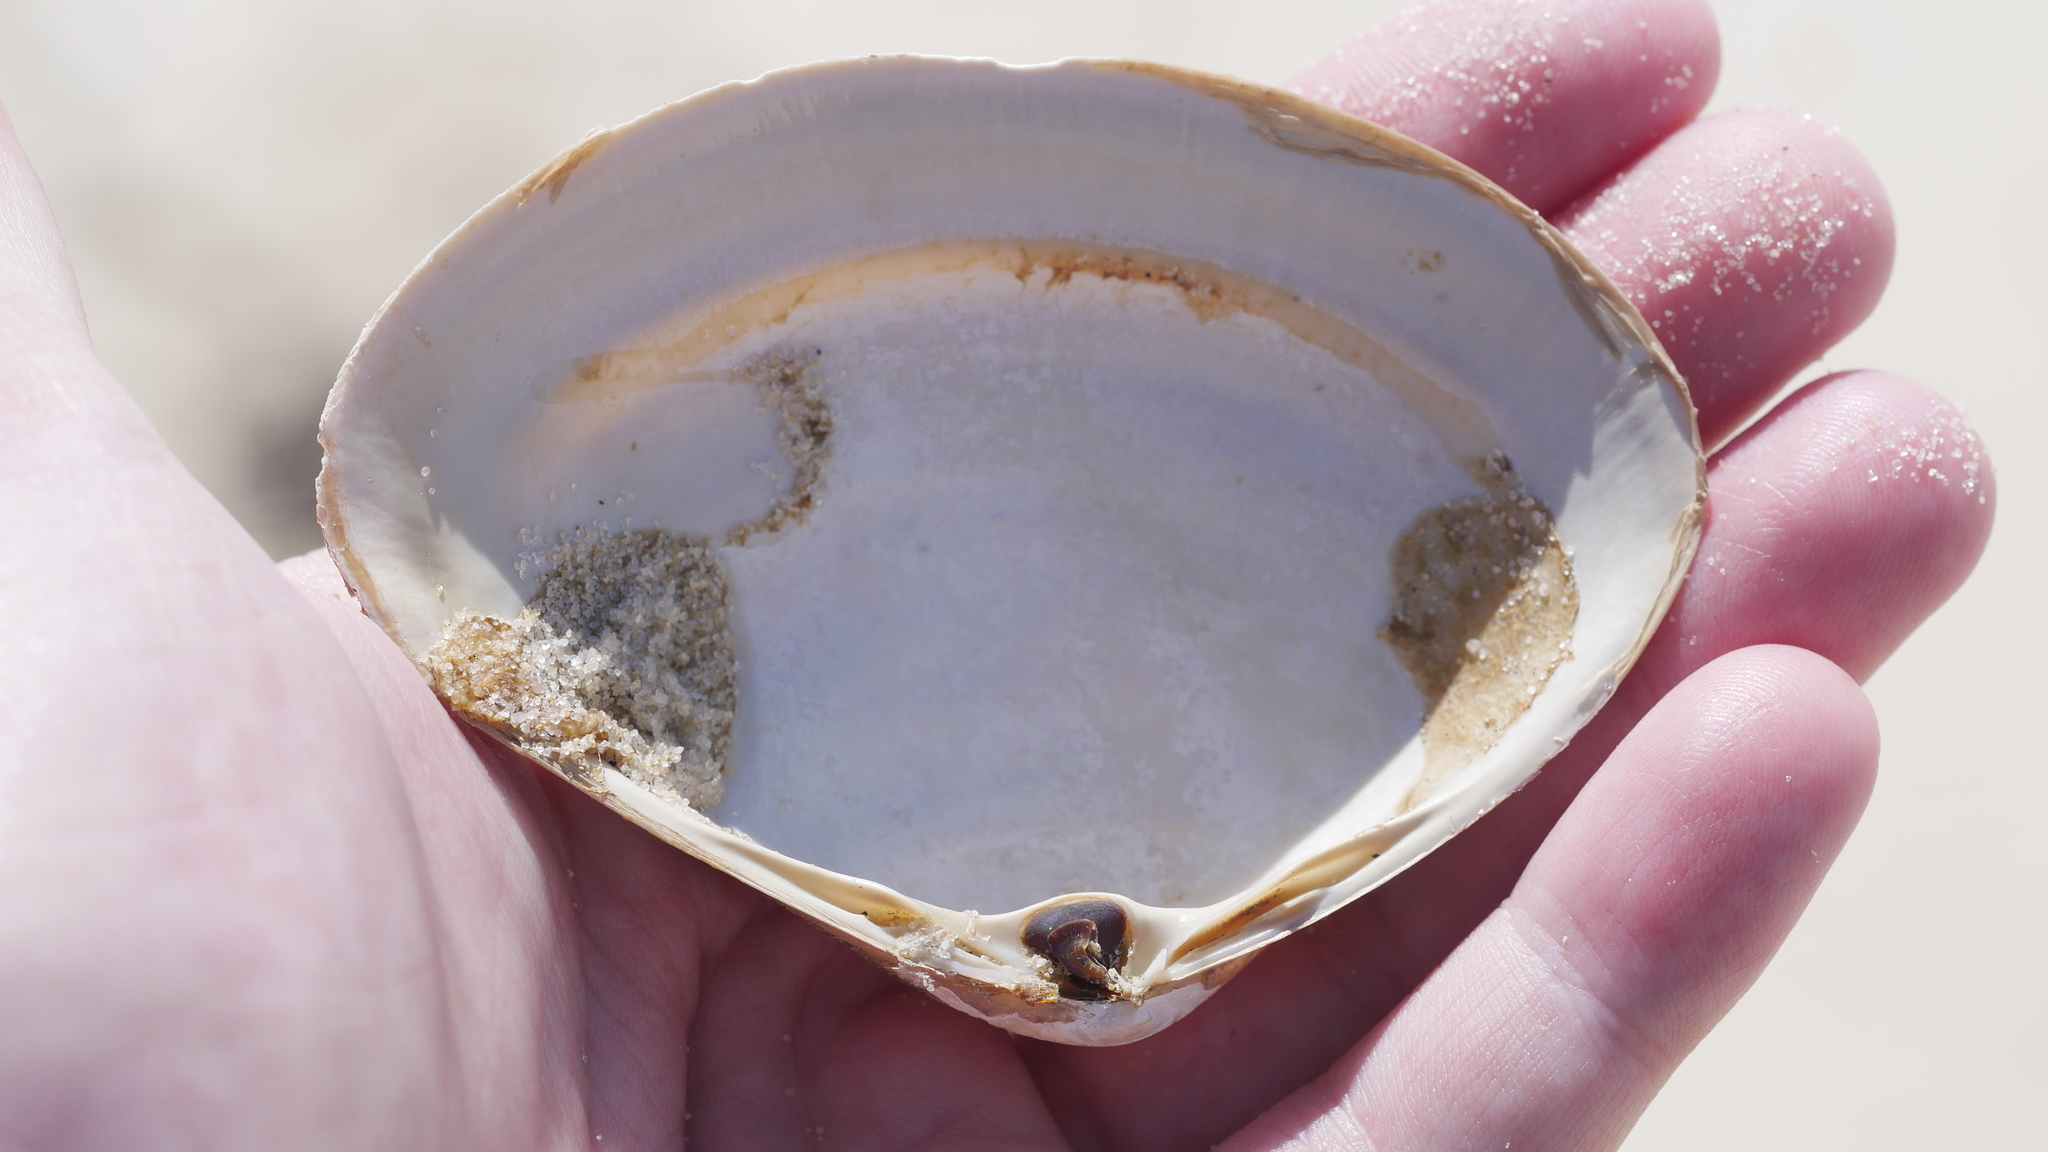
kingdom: Animalia
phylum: Mollusca
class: Bivalvia
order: Venerida
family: Mactridae
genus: Spisula
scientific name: Spisula solidissima
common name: Atlantic surf clam
